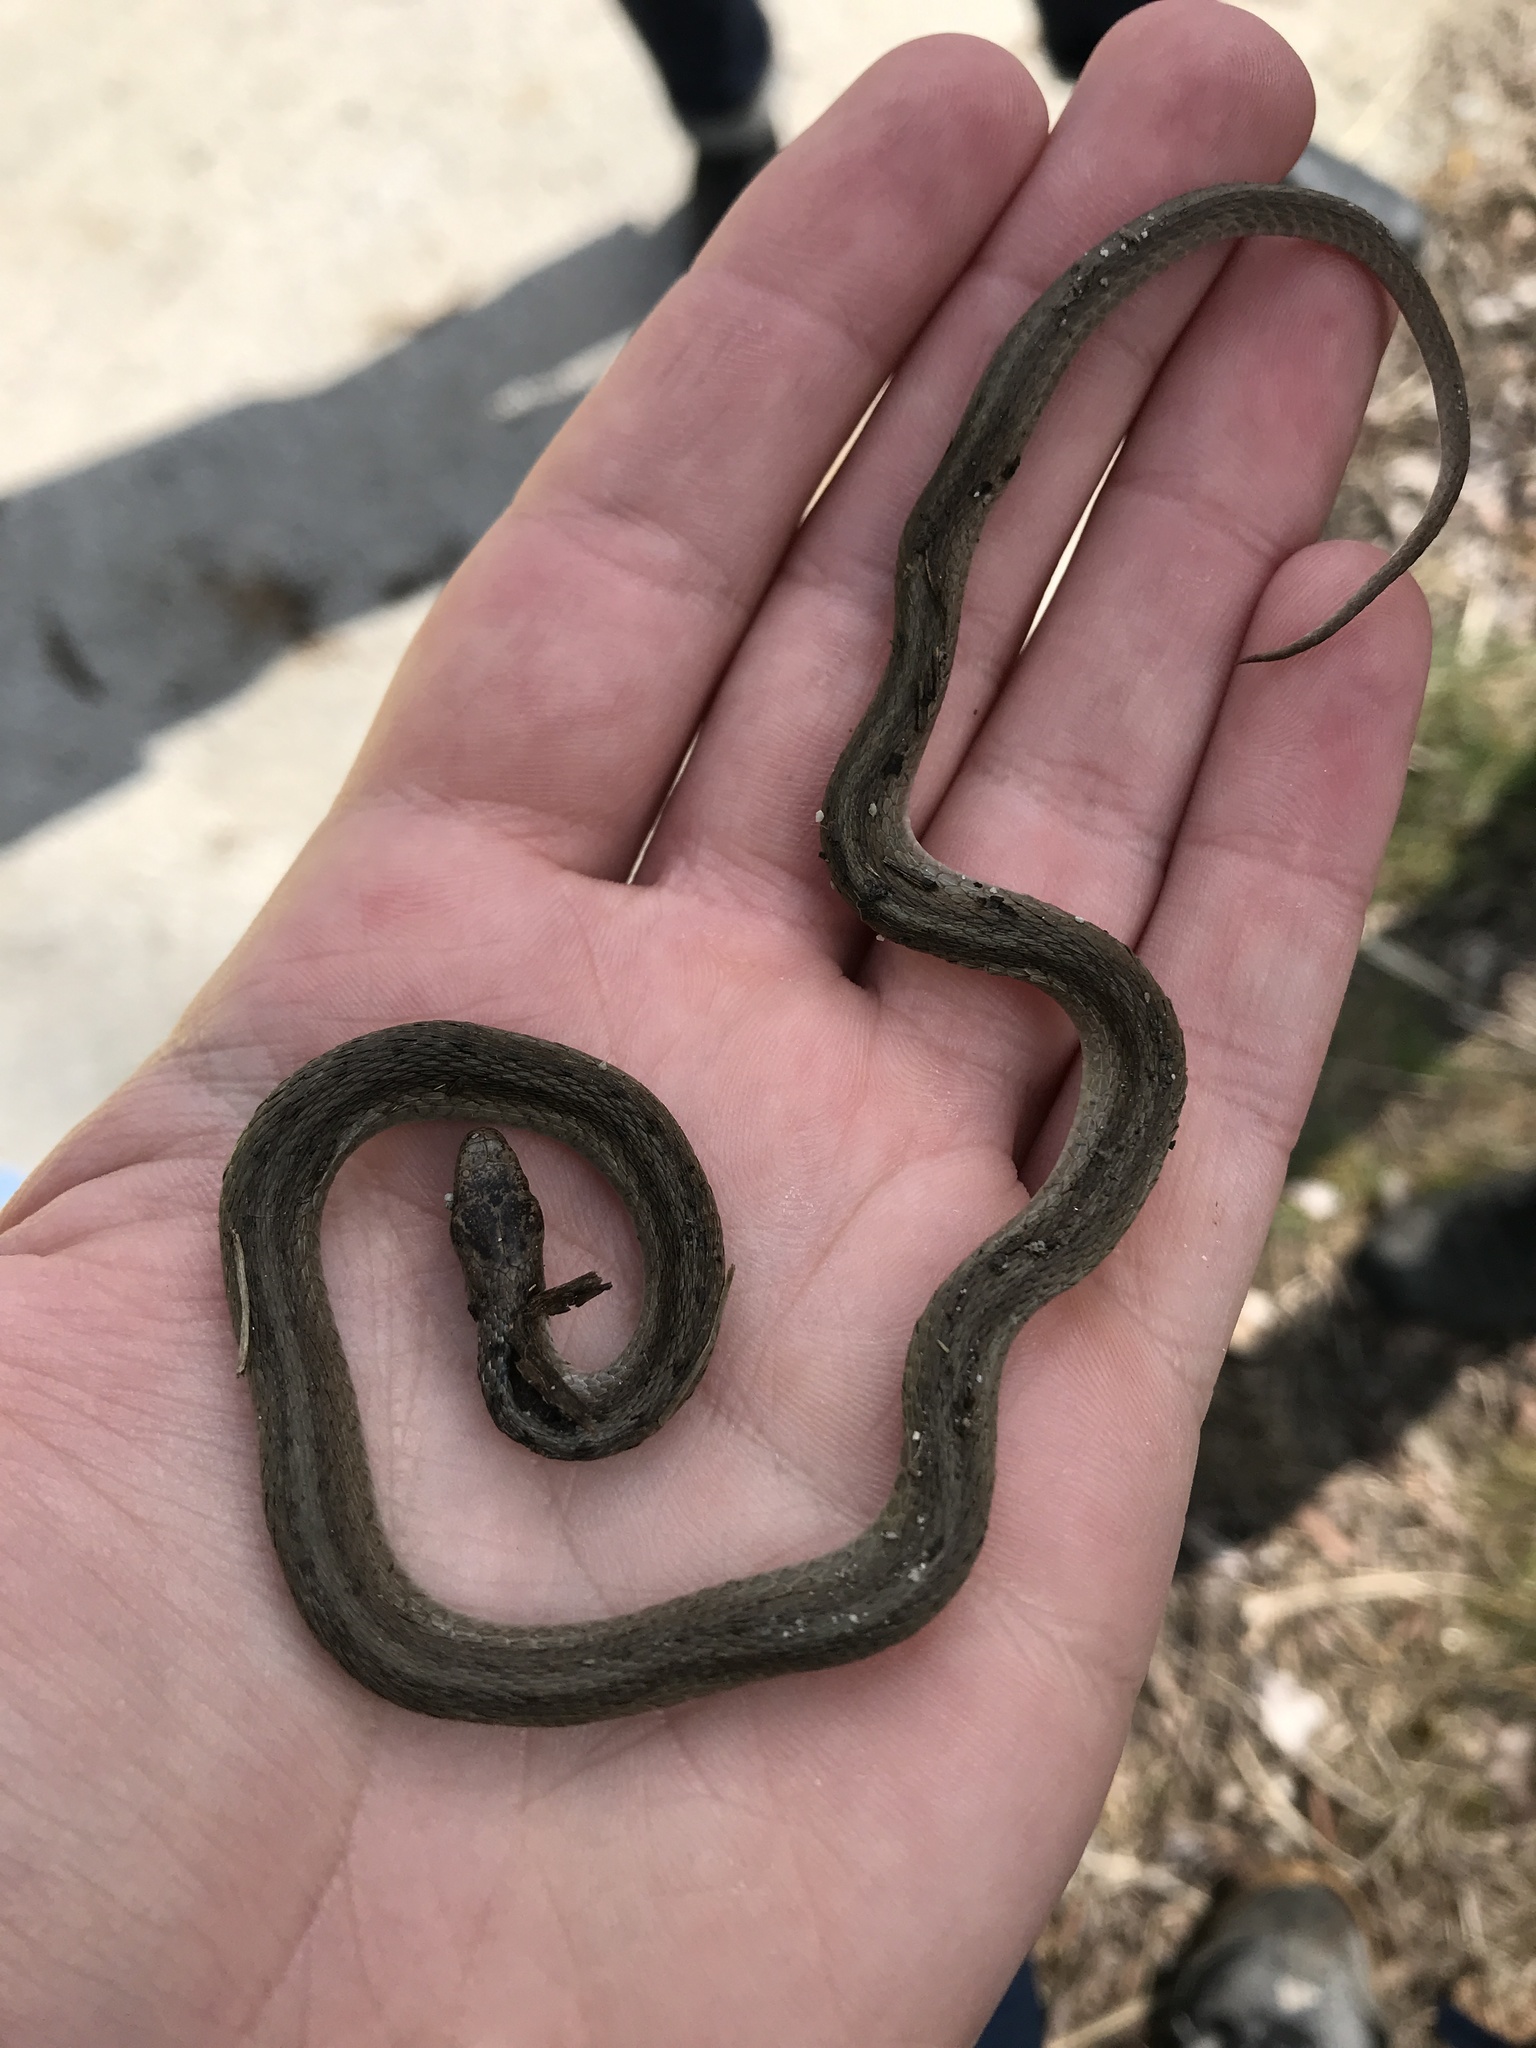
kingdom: Animalia
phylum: Chordata
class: Squamata
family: Colubridae
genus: Storeria
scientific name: Storeria dekayi
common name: (dekay’s) brown snake
